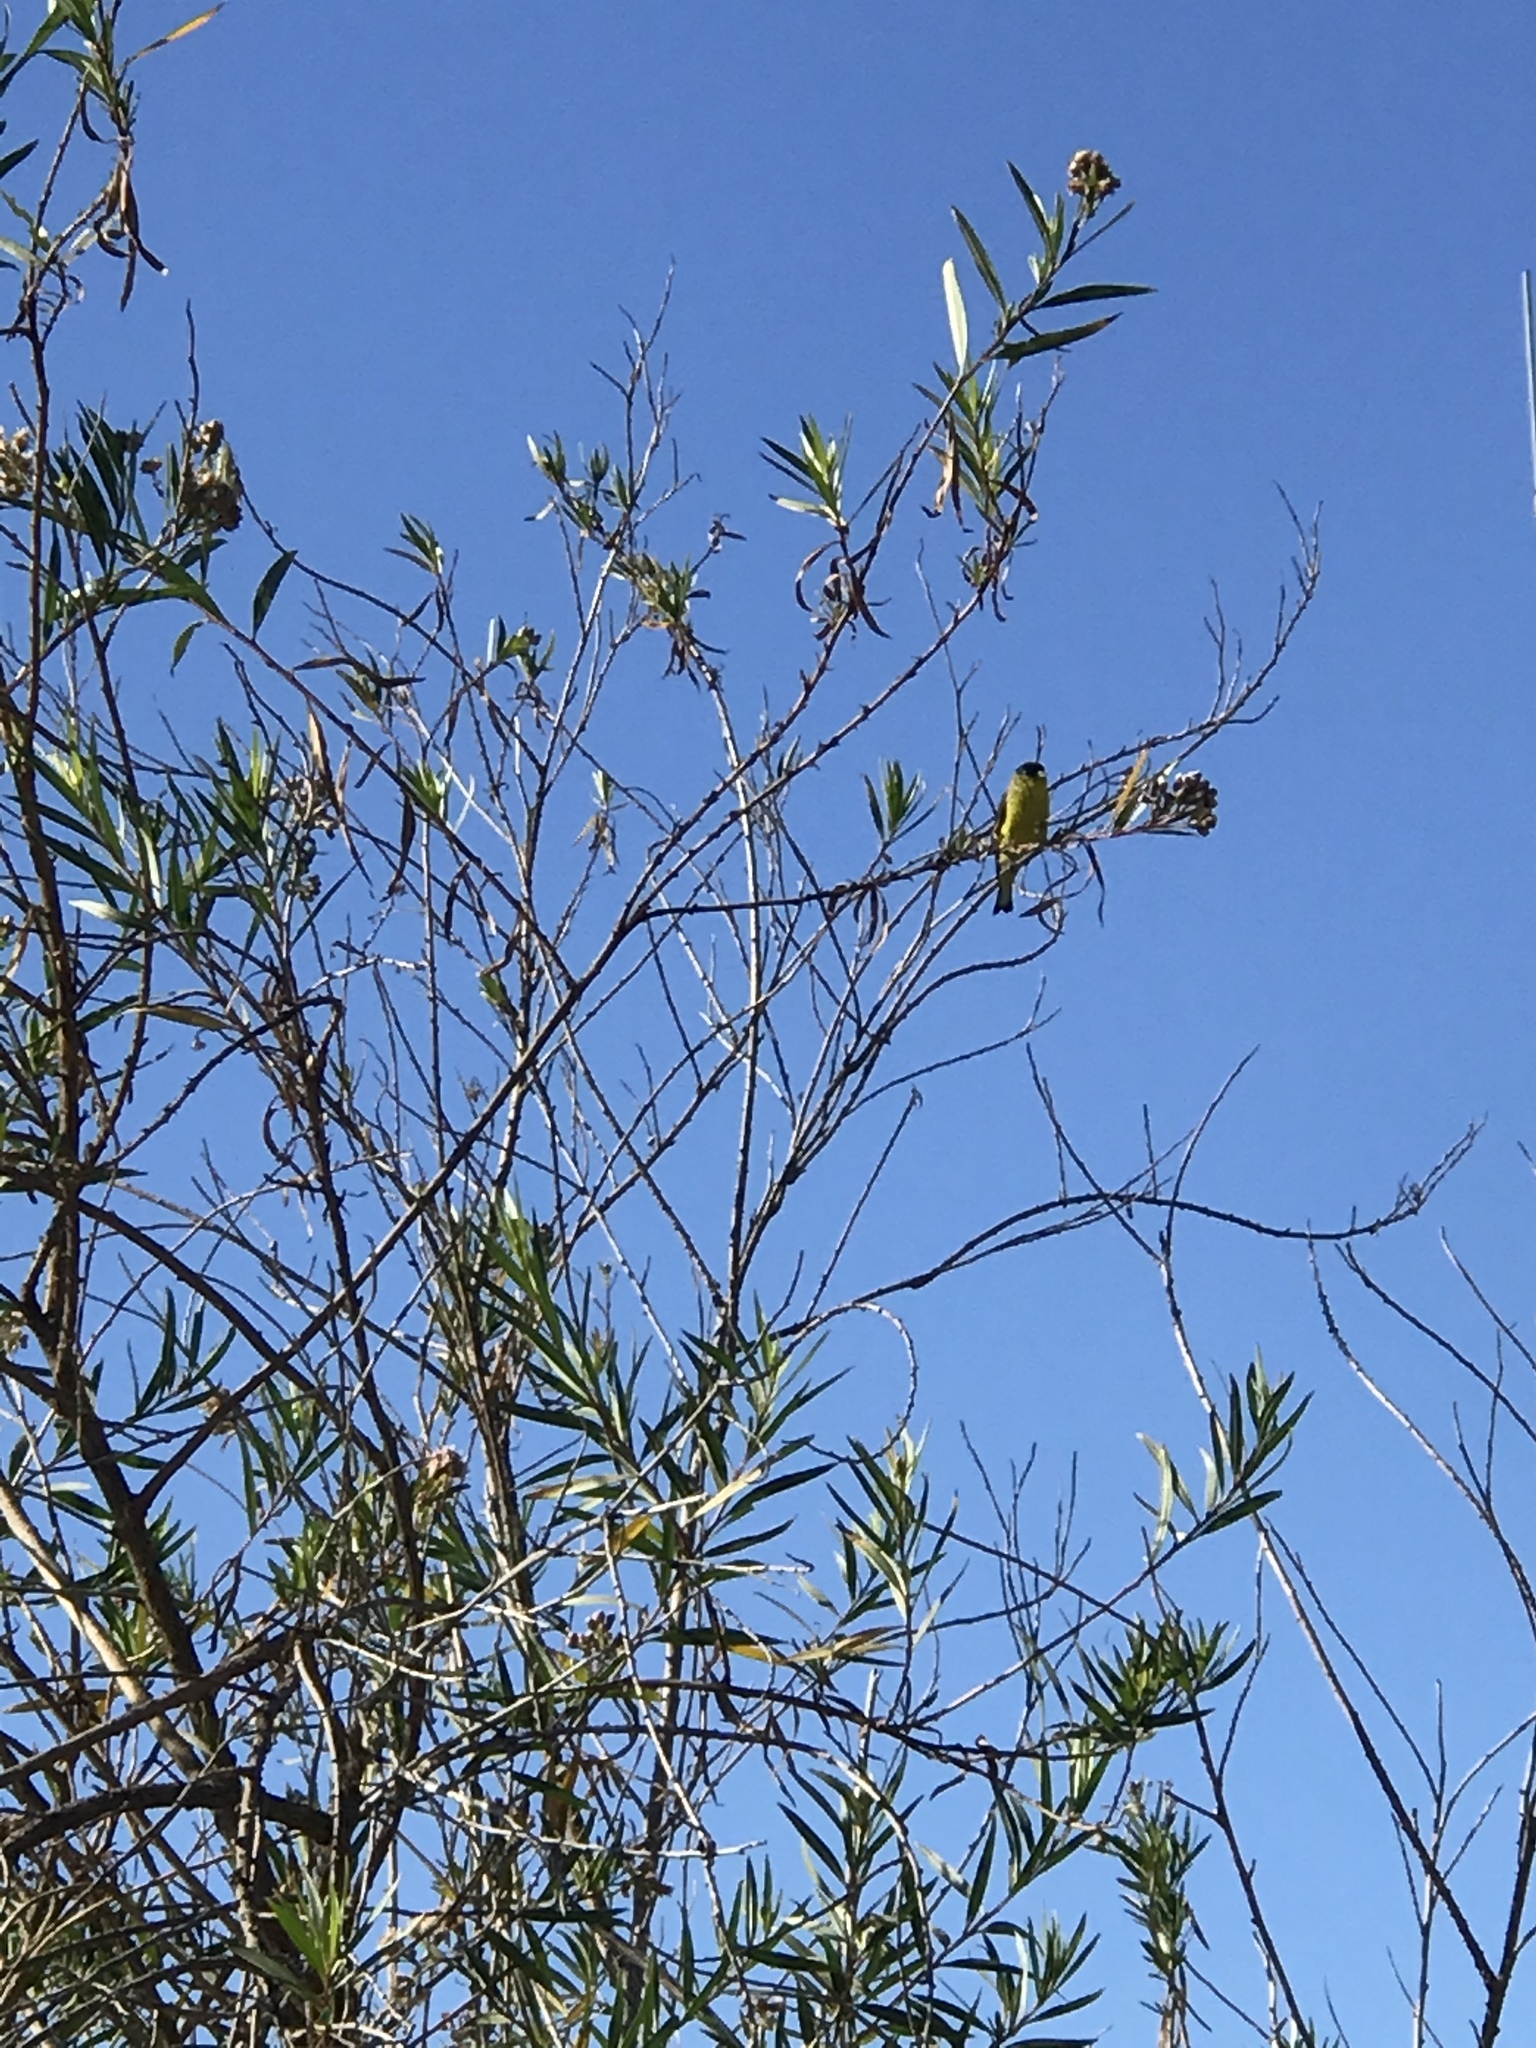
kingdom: Animalia
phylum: Chordata
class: Aves
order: Passeriformes
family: Fringillidae
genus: Spinus
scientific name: Spinus psaltria
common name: Lesser goldfinch
